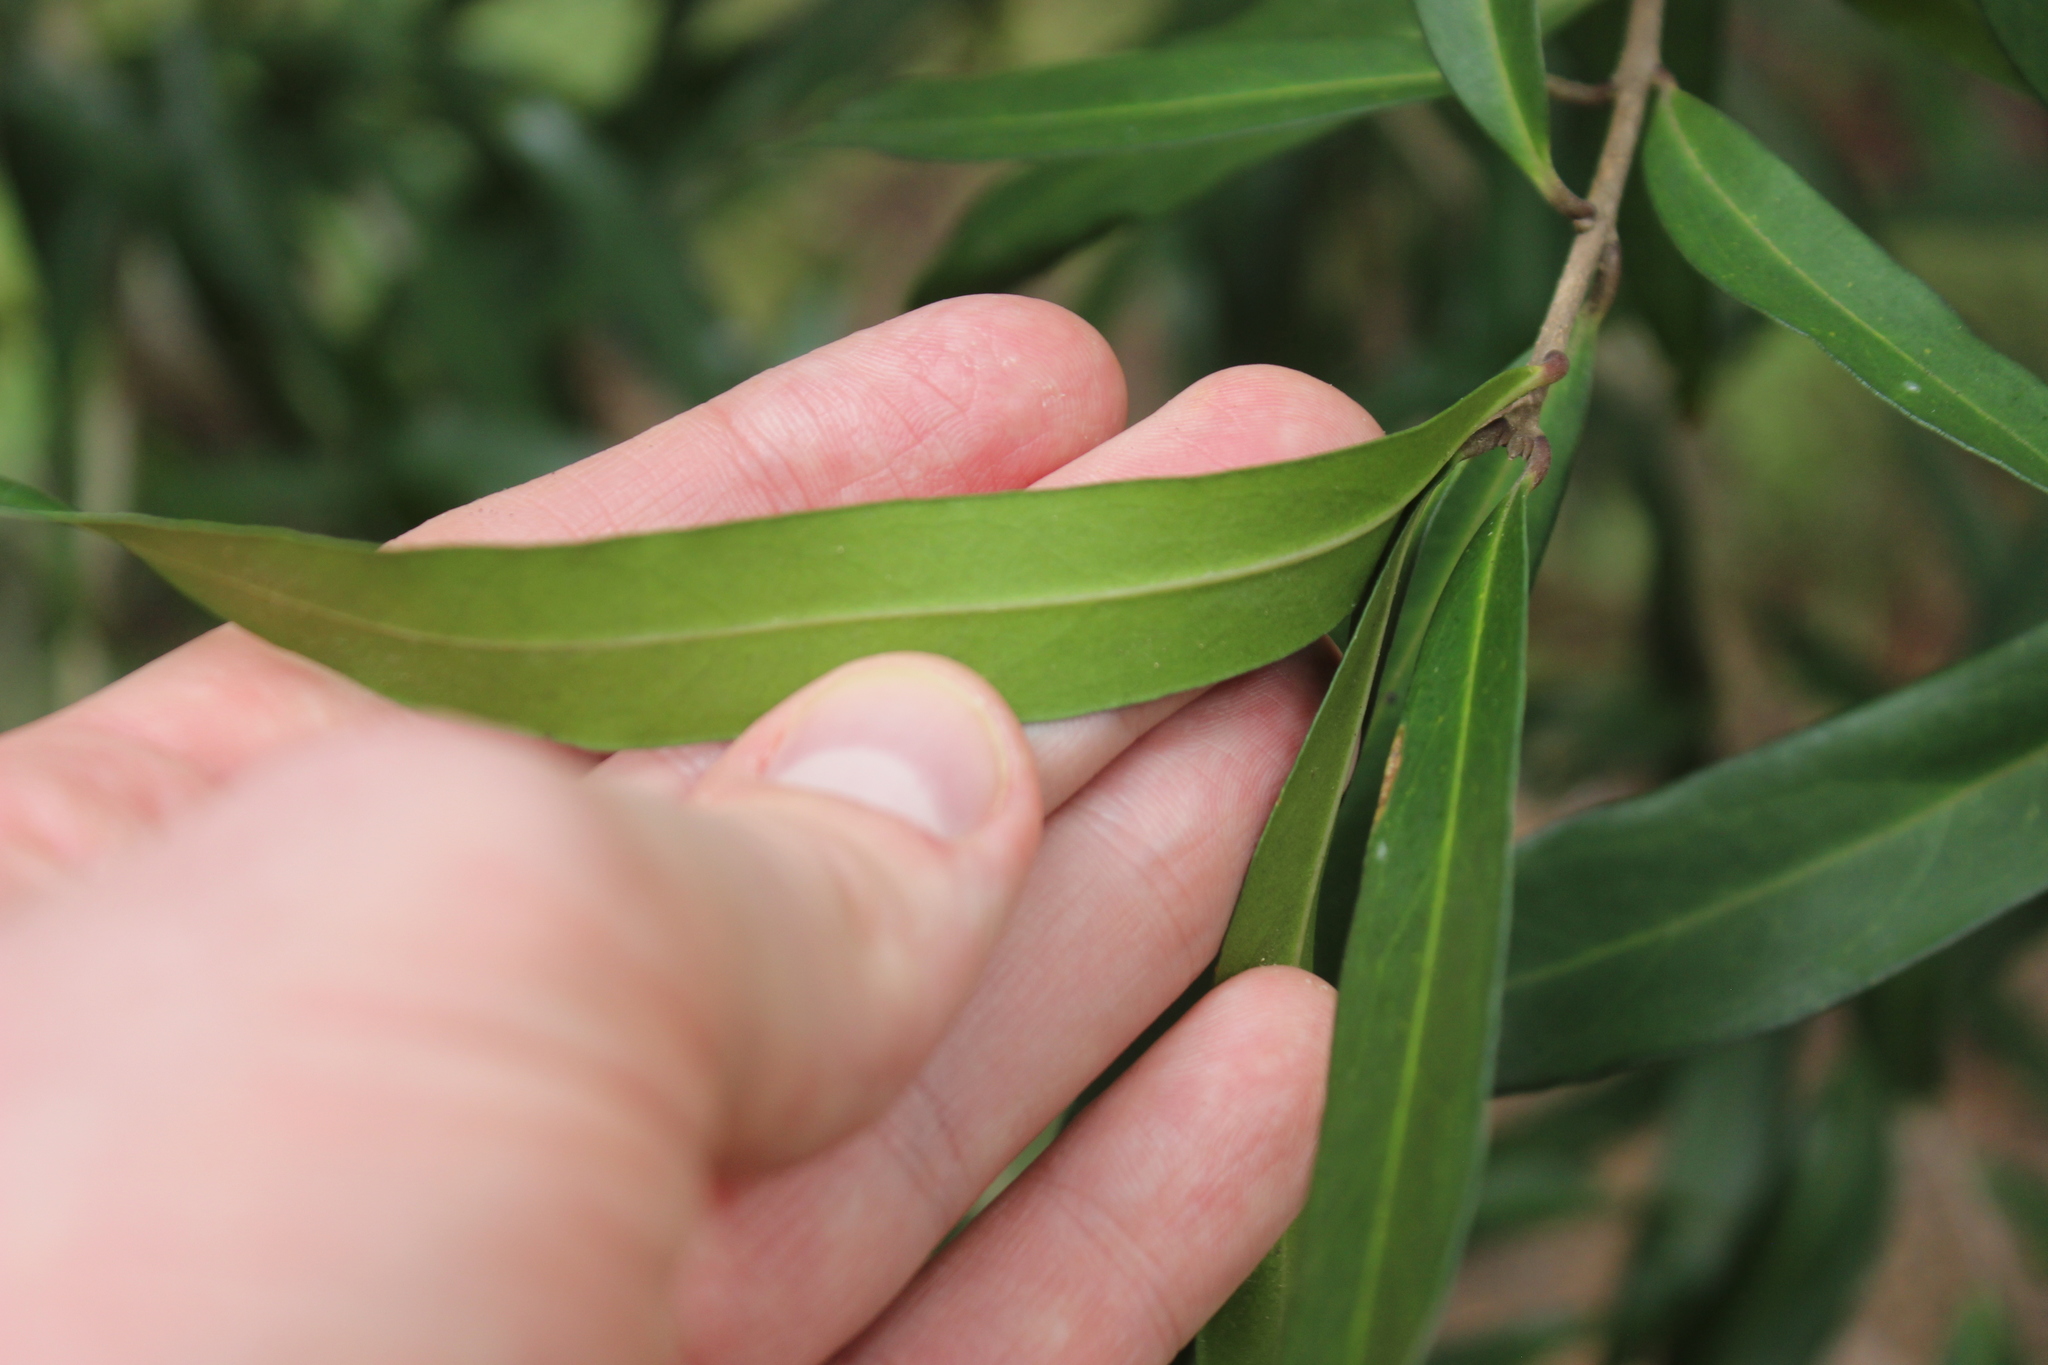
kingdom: Plantae
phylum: Tracheophyta
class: Magnoliopsida
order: Lamiales
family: Oleaceae
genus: Nestegis
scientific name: Nestegis lanceolata
